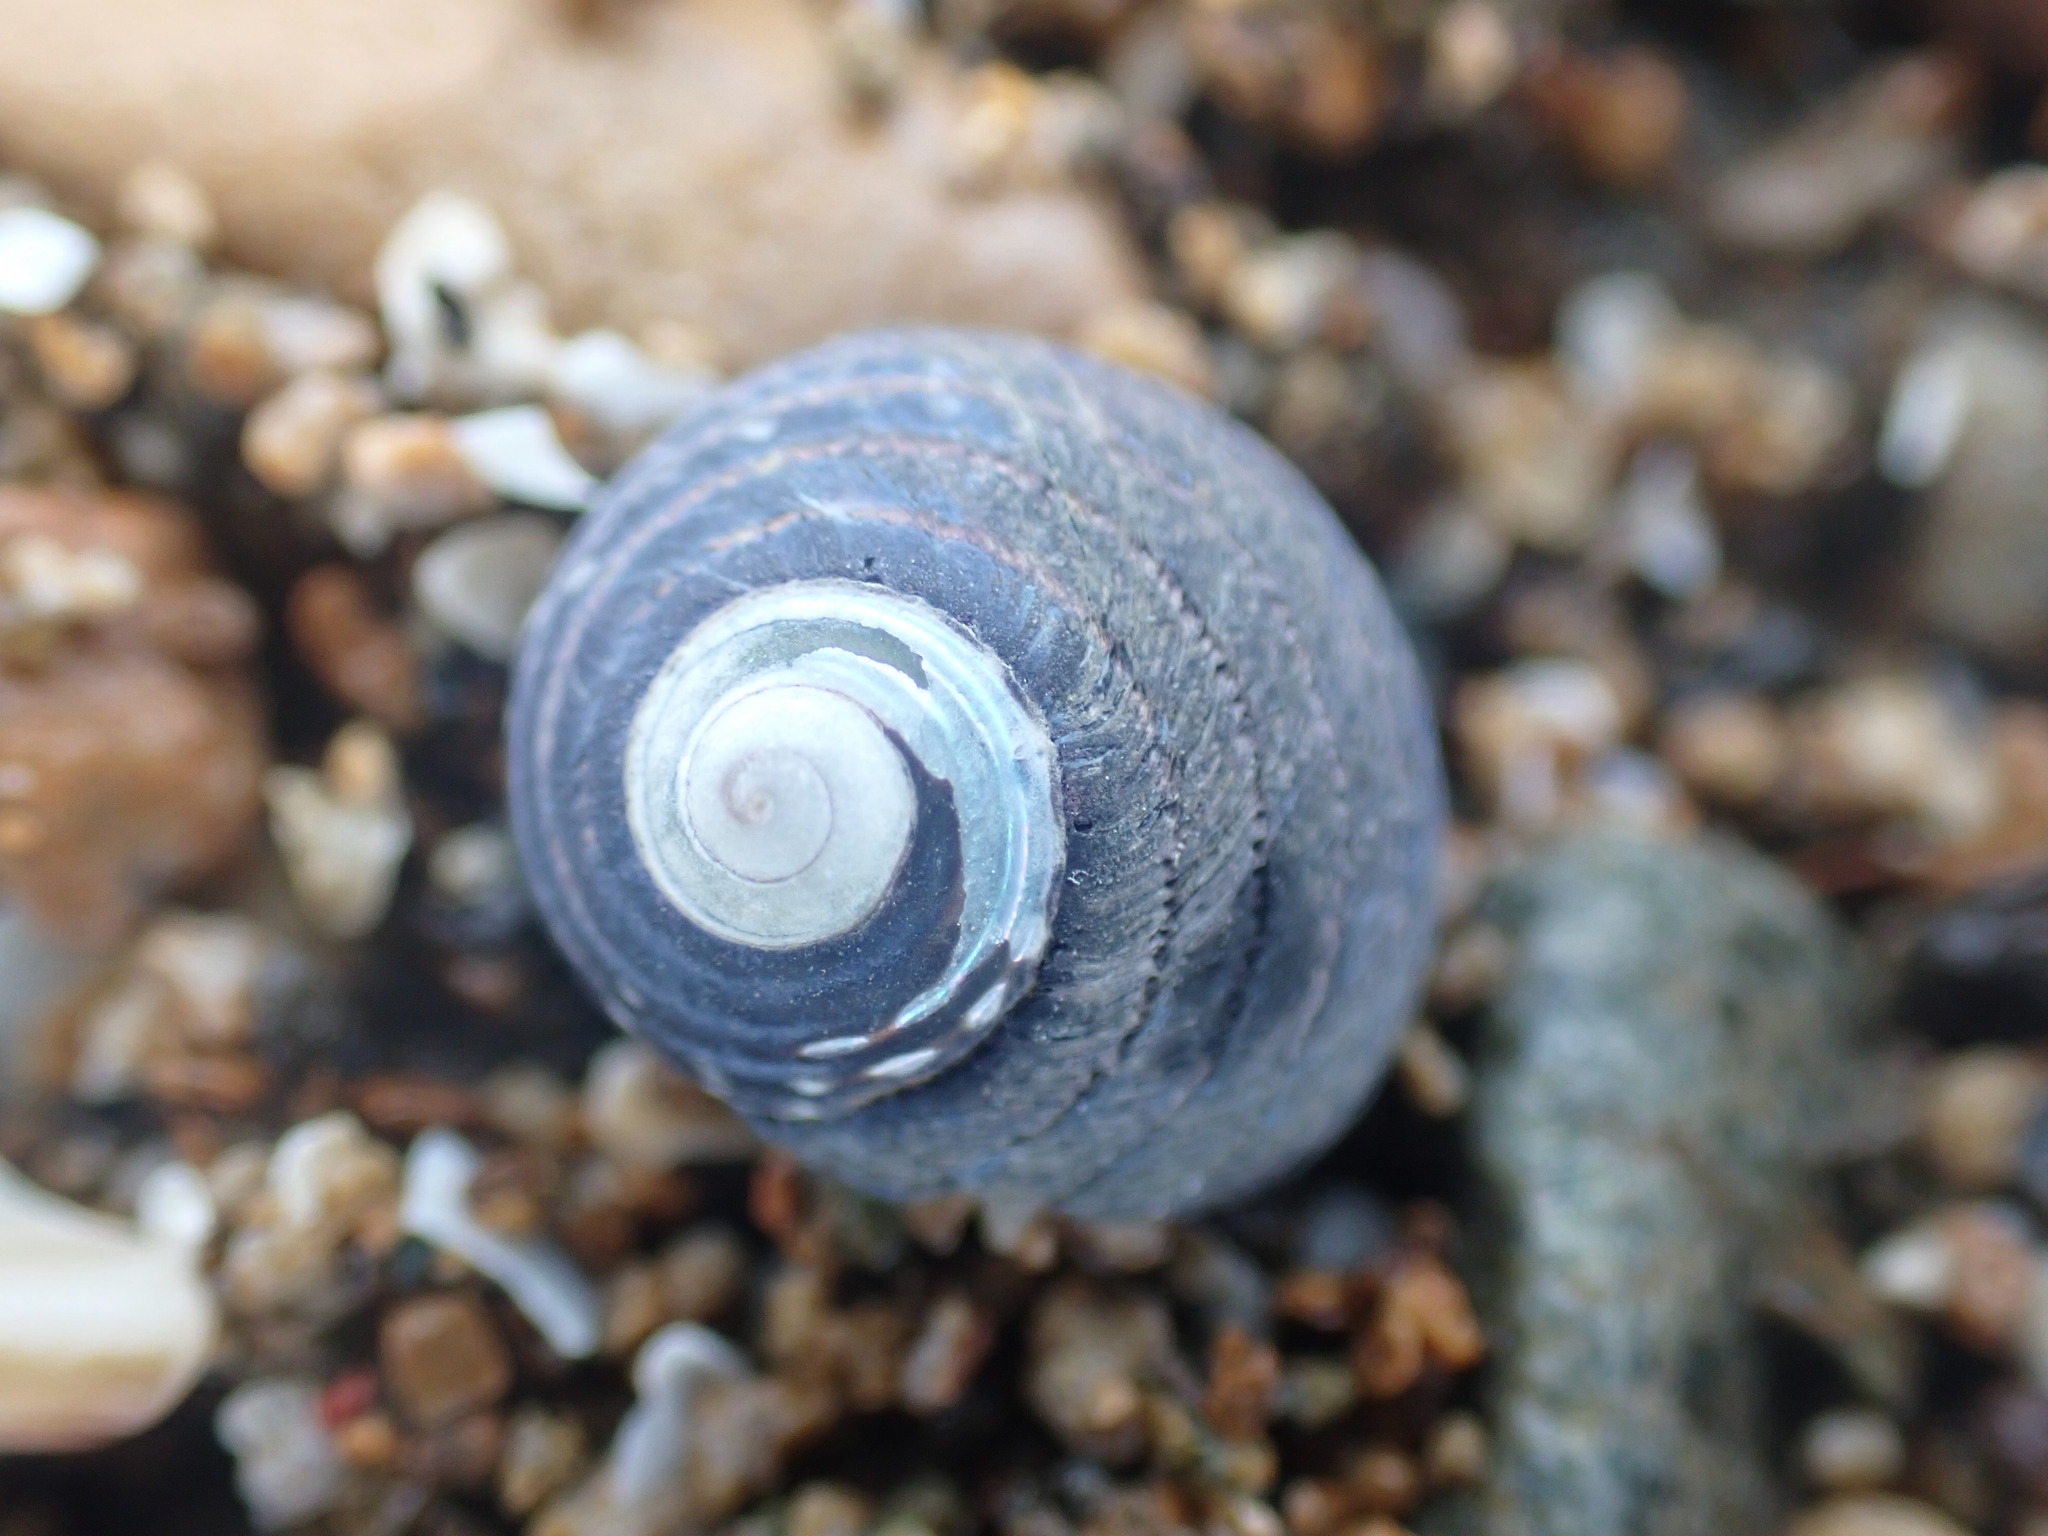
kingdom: Animalia
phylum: Mollusca
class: Gastropoda
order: Trochida
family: Trochidae
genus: Diloma
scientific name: Diloma aethiops
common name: Scorched monodont
